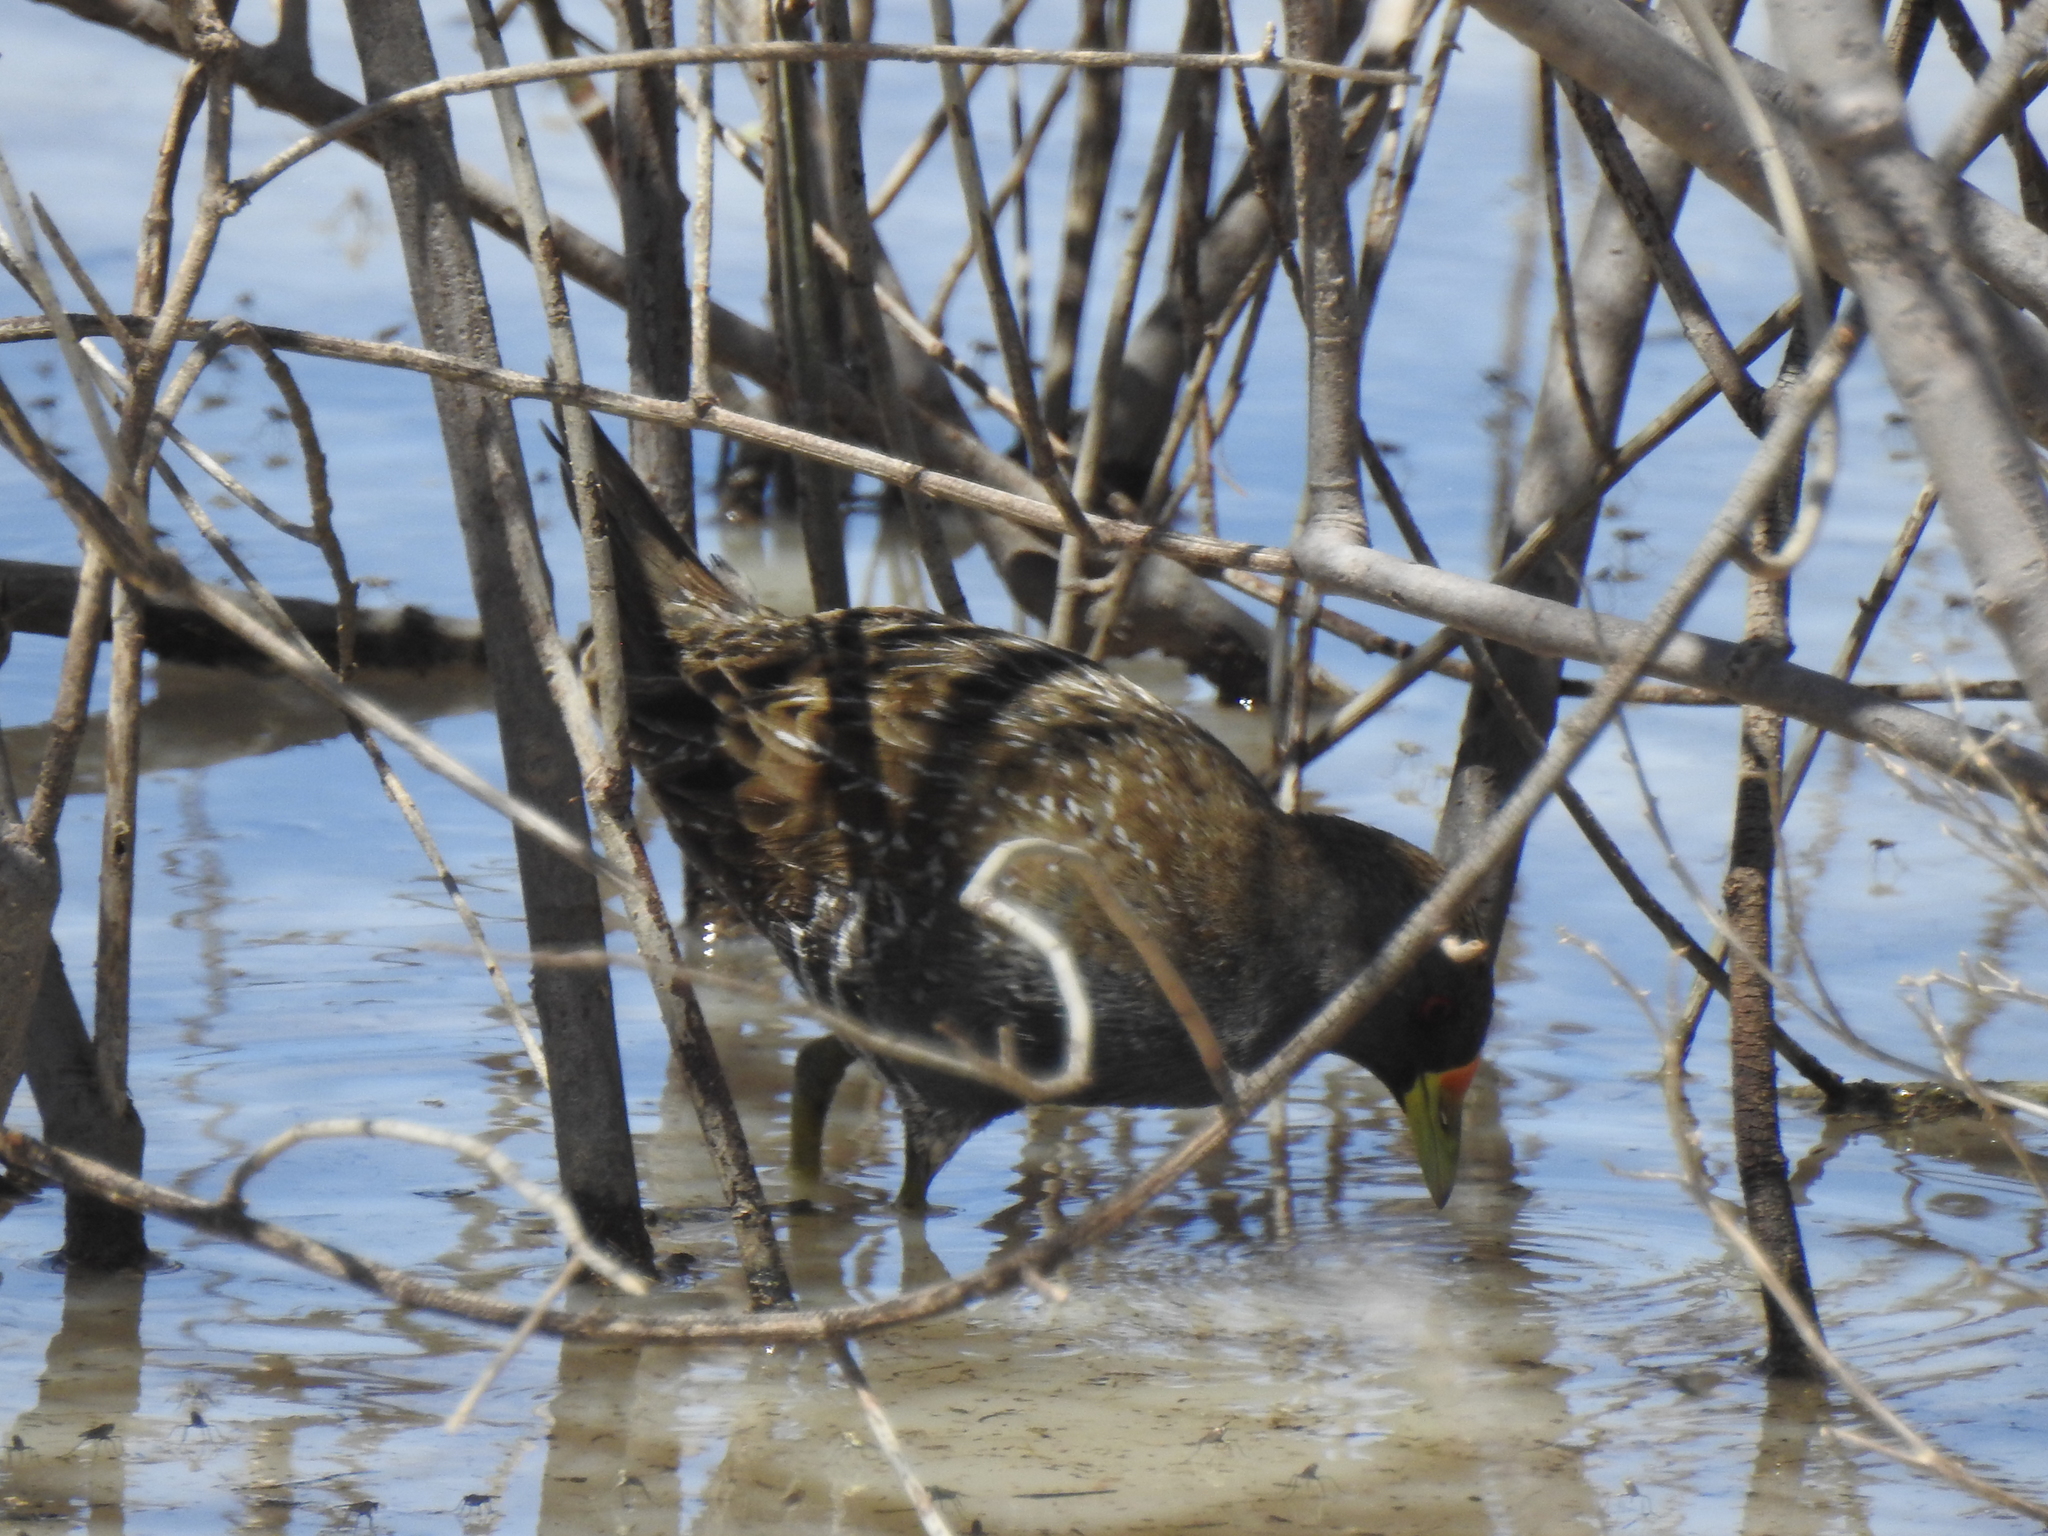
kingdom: Animalia
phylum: Chordata
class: Aves
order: Gruiformes
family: Rallidae
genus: Porzana
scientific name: Porzana fluminea
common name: Australian crake
